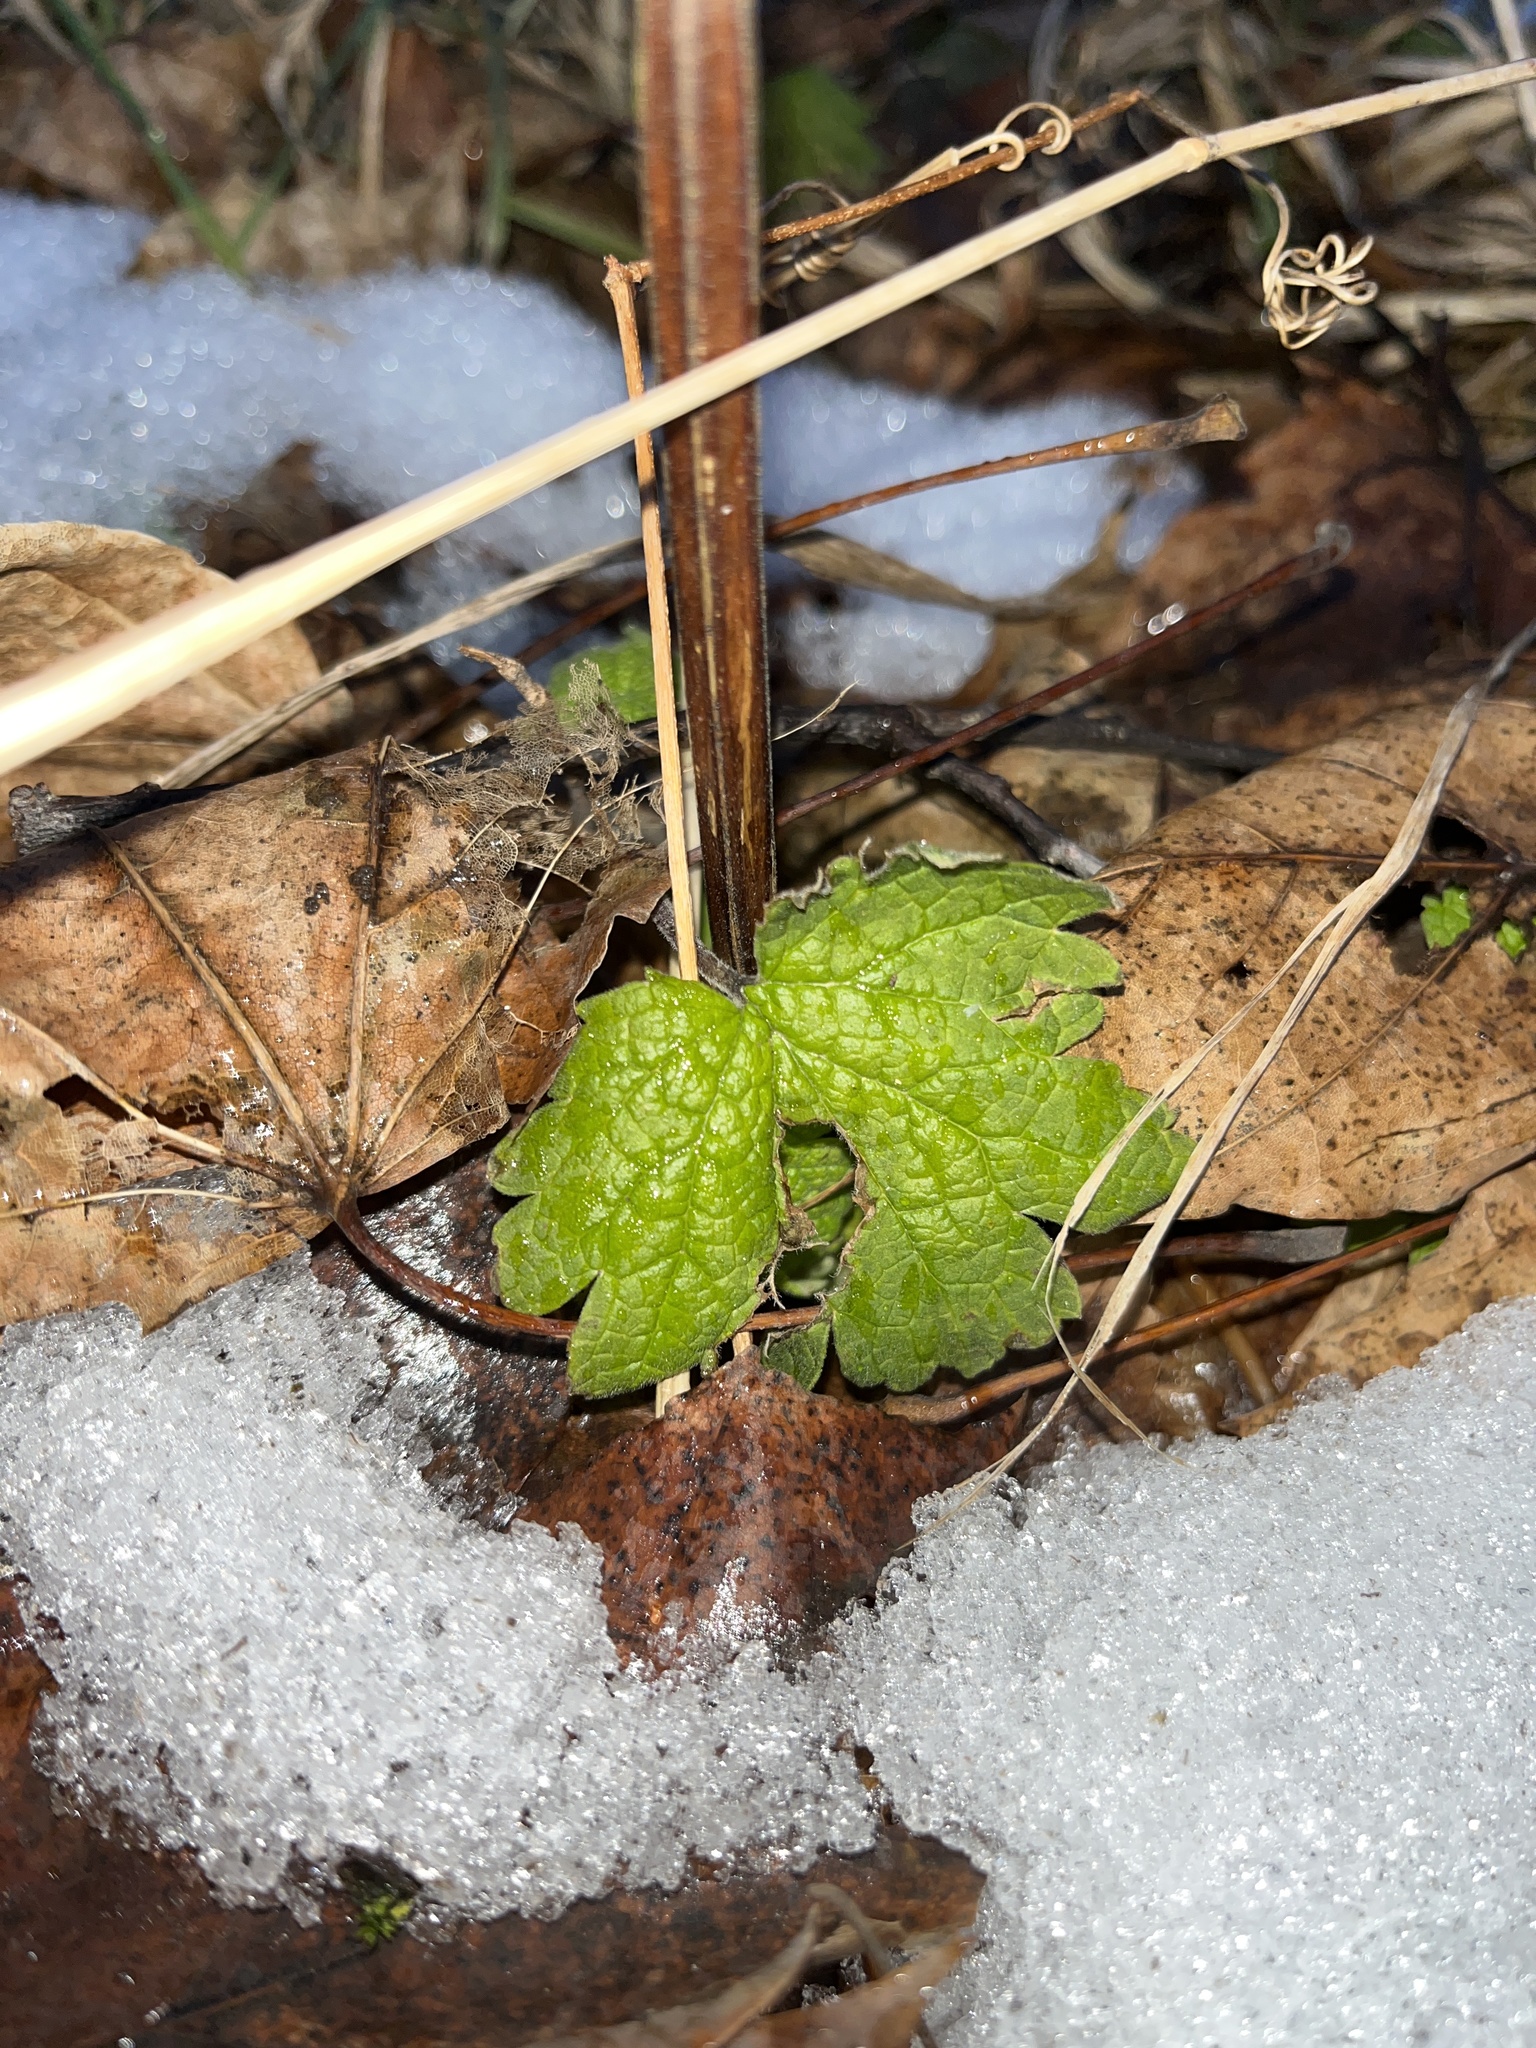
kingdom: Plantae
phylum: Tracheophyta
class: Magnoliopsida
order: Lamiales
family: Lamiaceae
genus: Leonurus
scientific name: Leonurus cardiaca
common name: Motherwort
